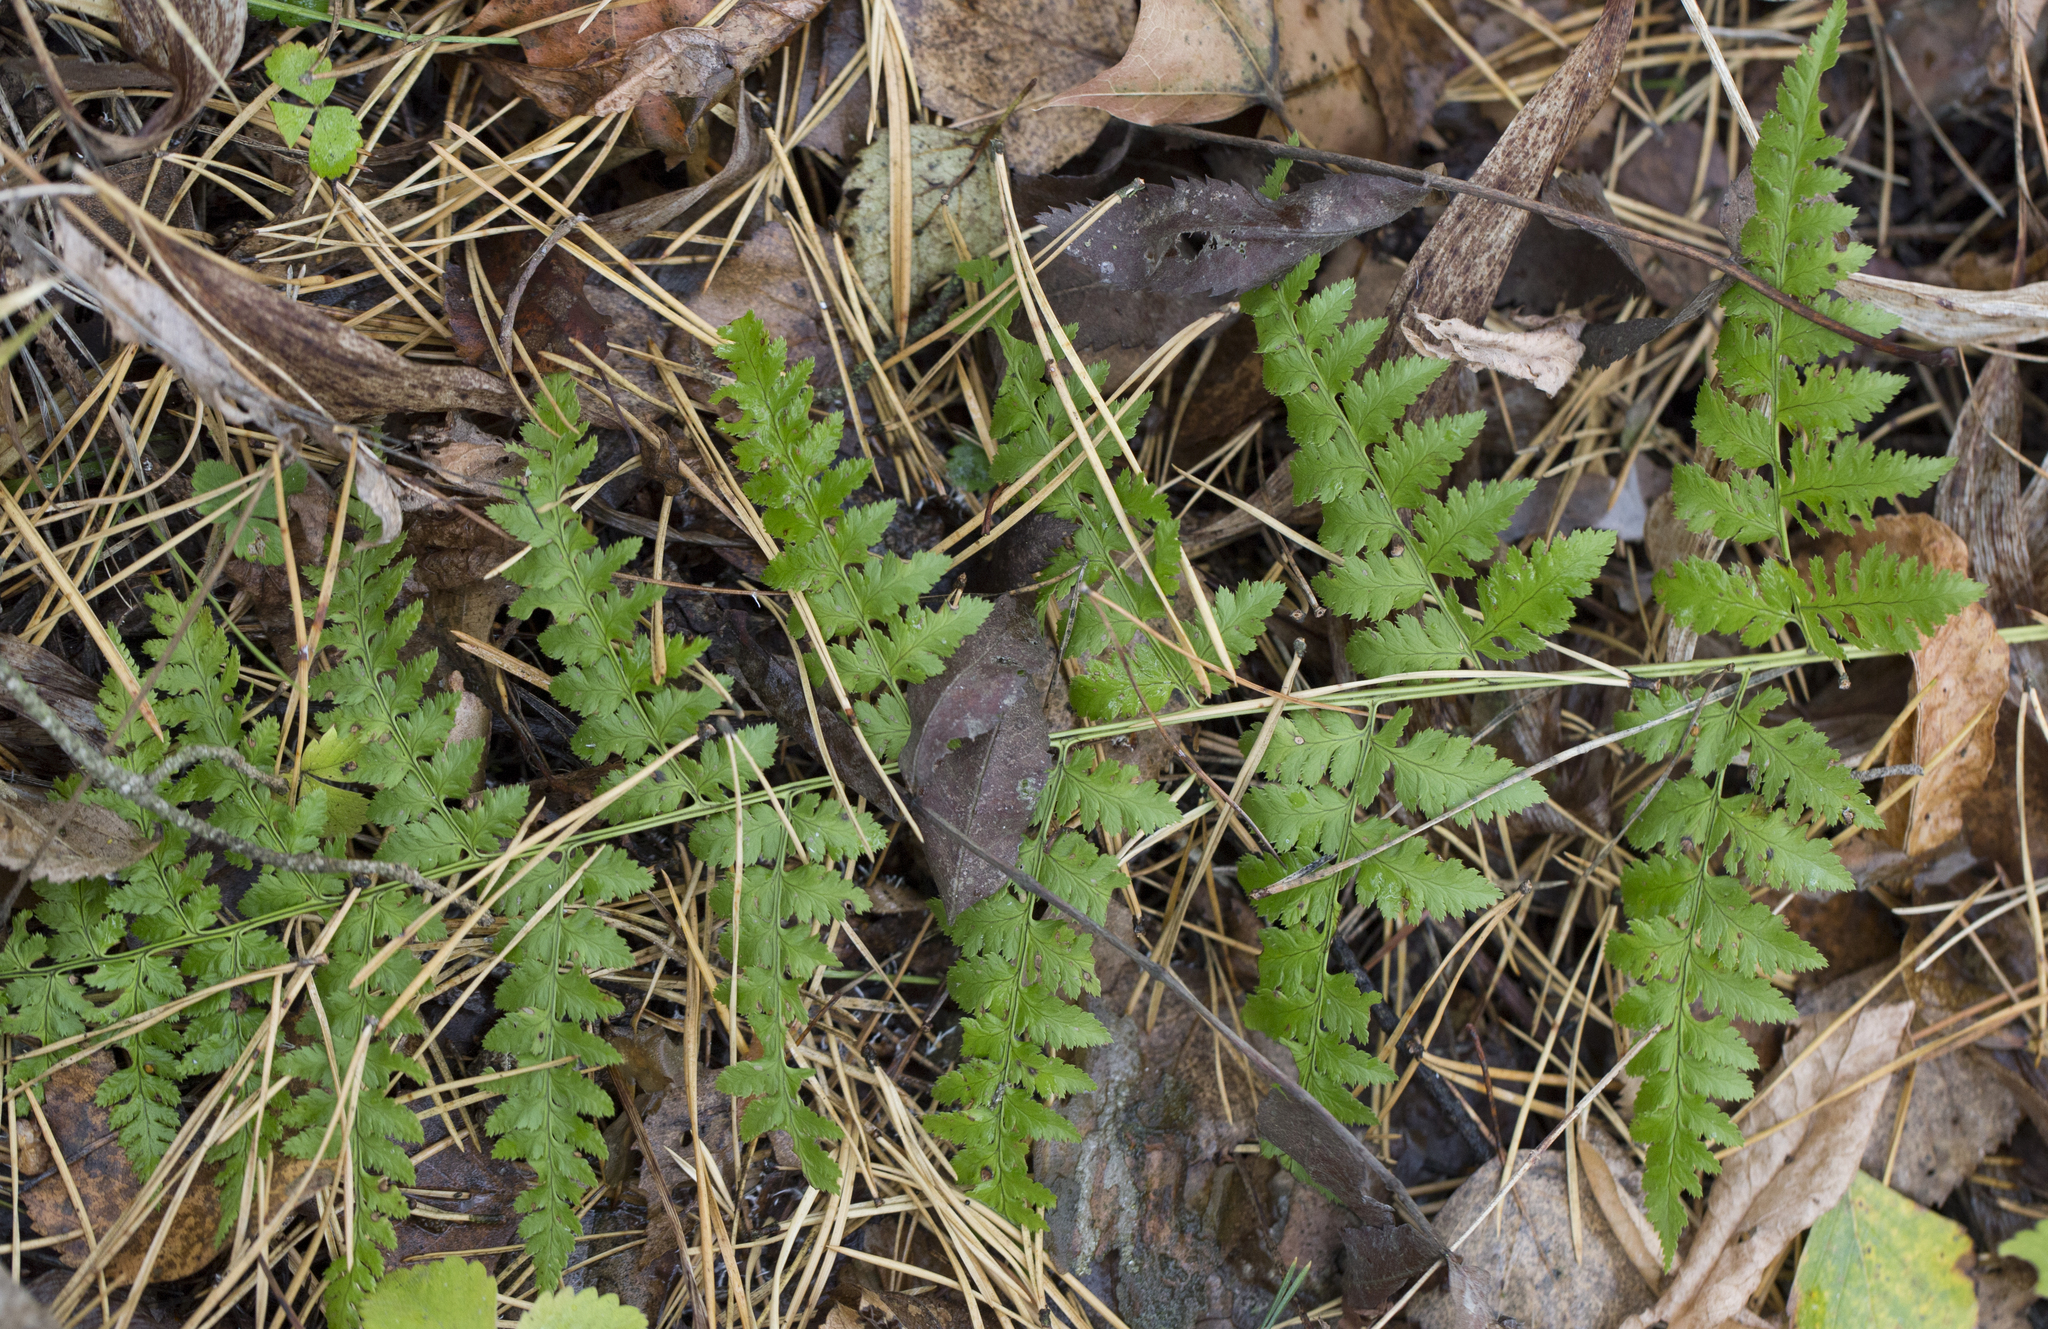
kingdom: Plantae
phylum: Tracheophyta
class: Polypodiopsida
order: Polypodiales
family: Dryopteridaceae
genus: Dryopteris
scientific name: Dryopteris carthusiana
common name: Narrow buckler-fern
